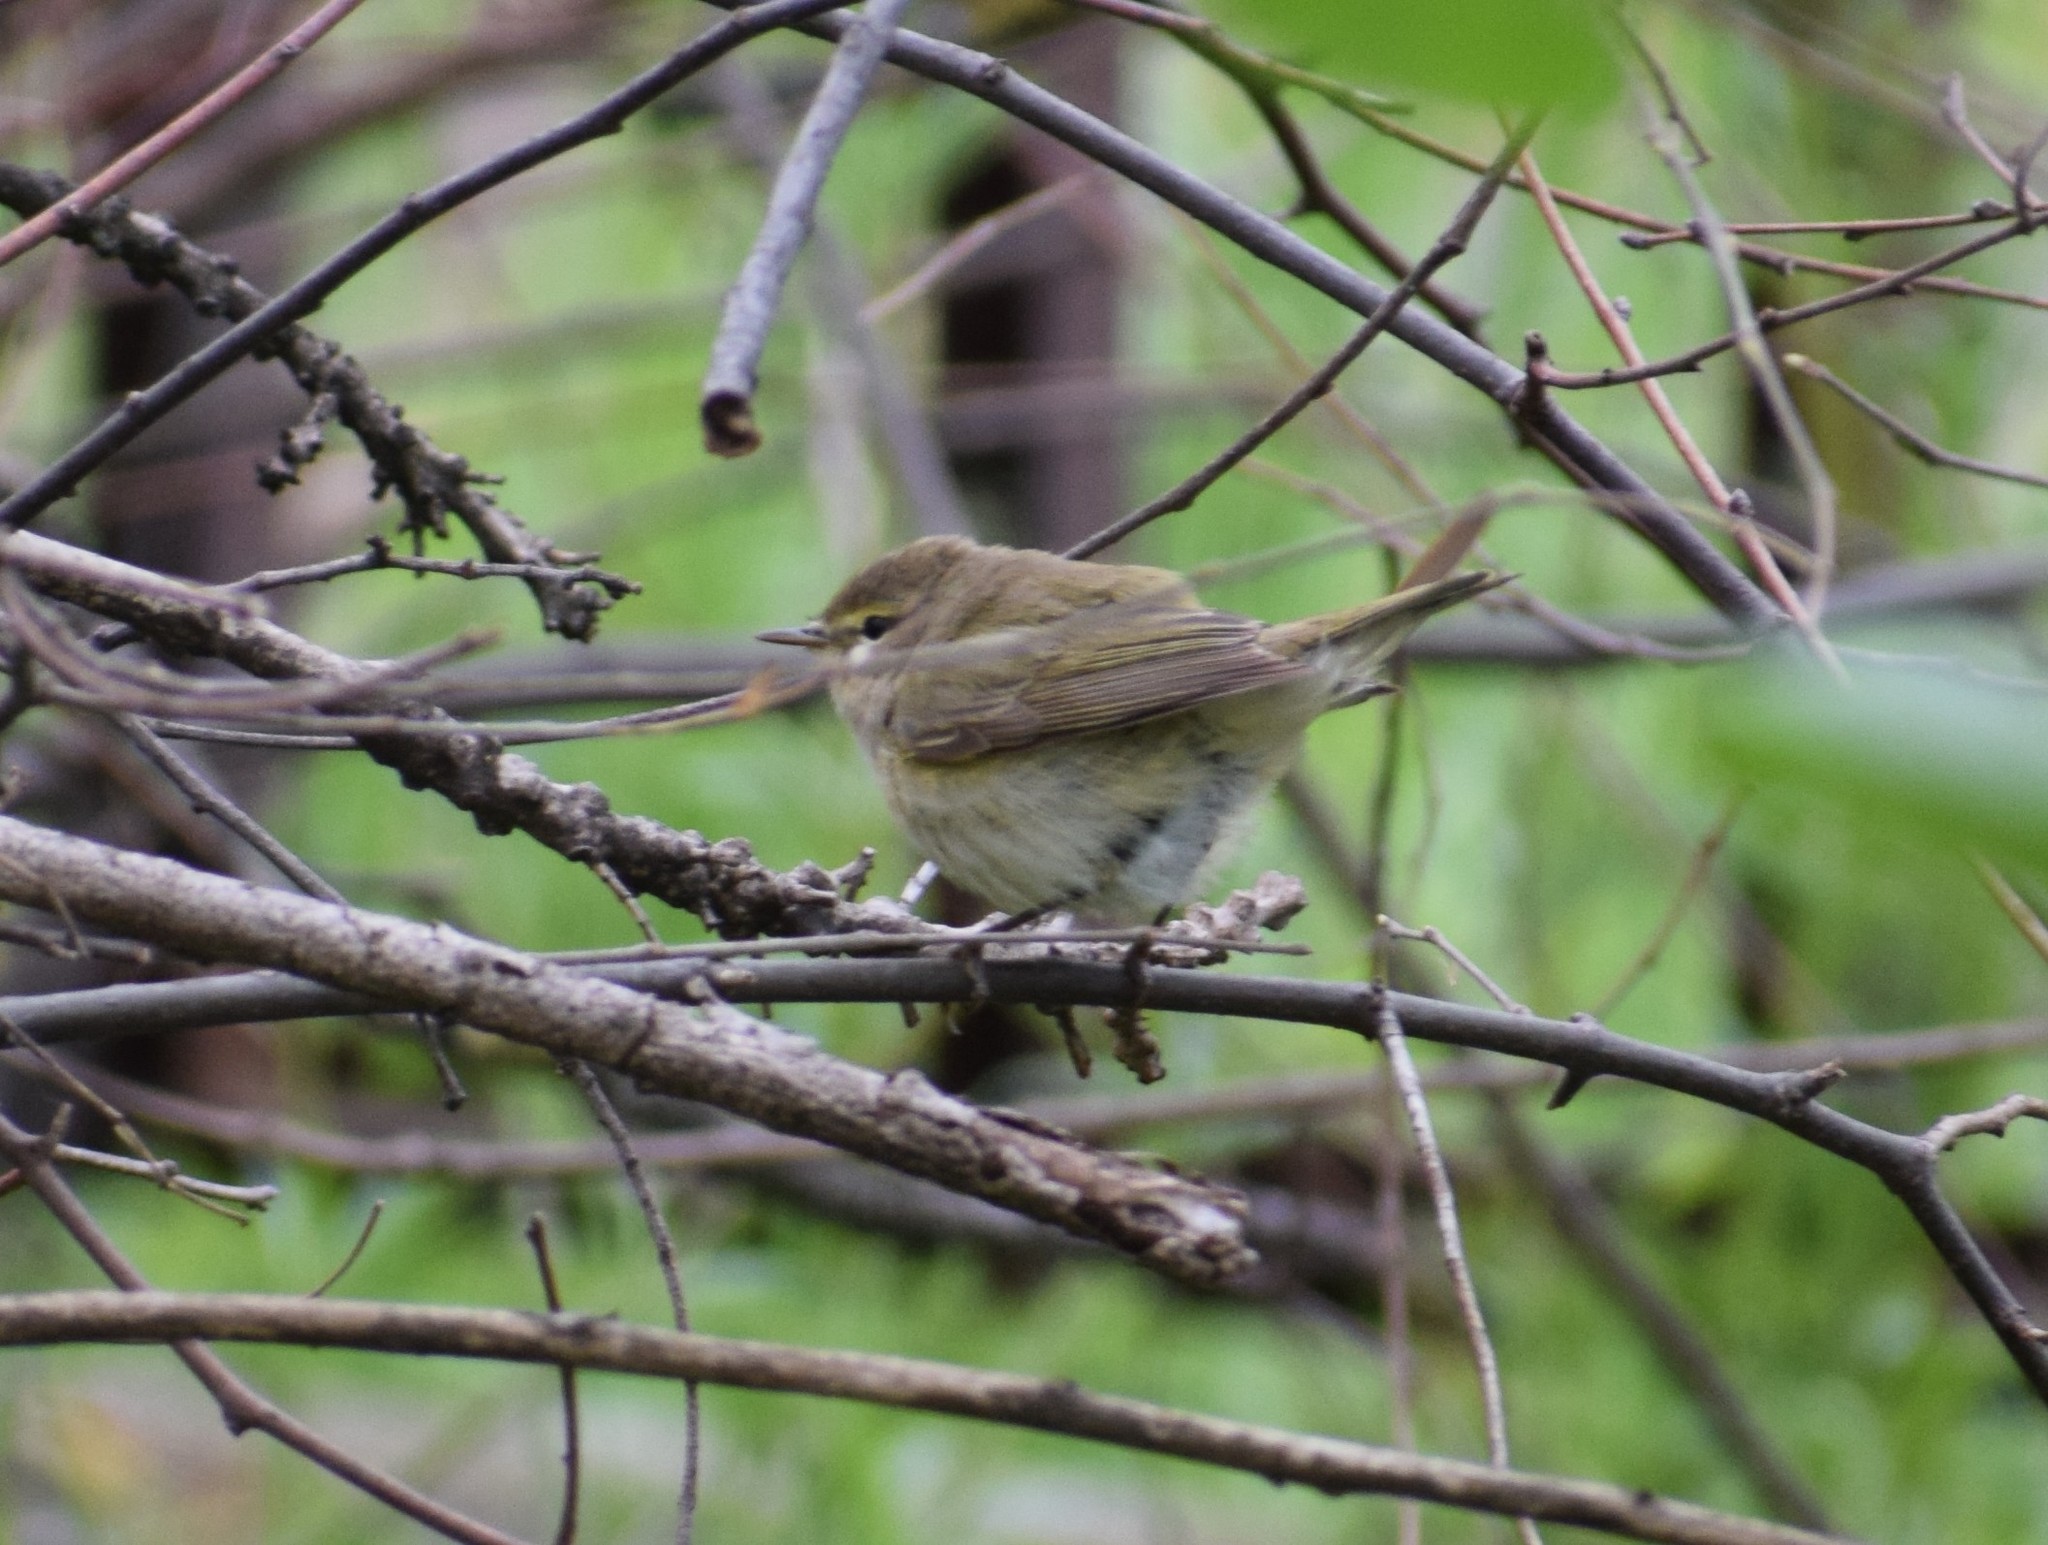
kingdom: Animalia
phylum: Chordata
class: Aves
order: Passeriformes
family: Phylloscopidae
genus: Phylloscopus
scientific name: Phylloscopus collybita
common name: Common chiffchaff
